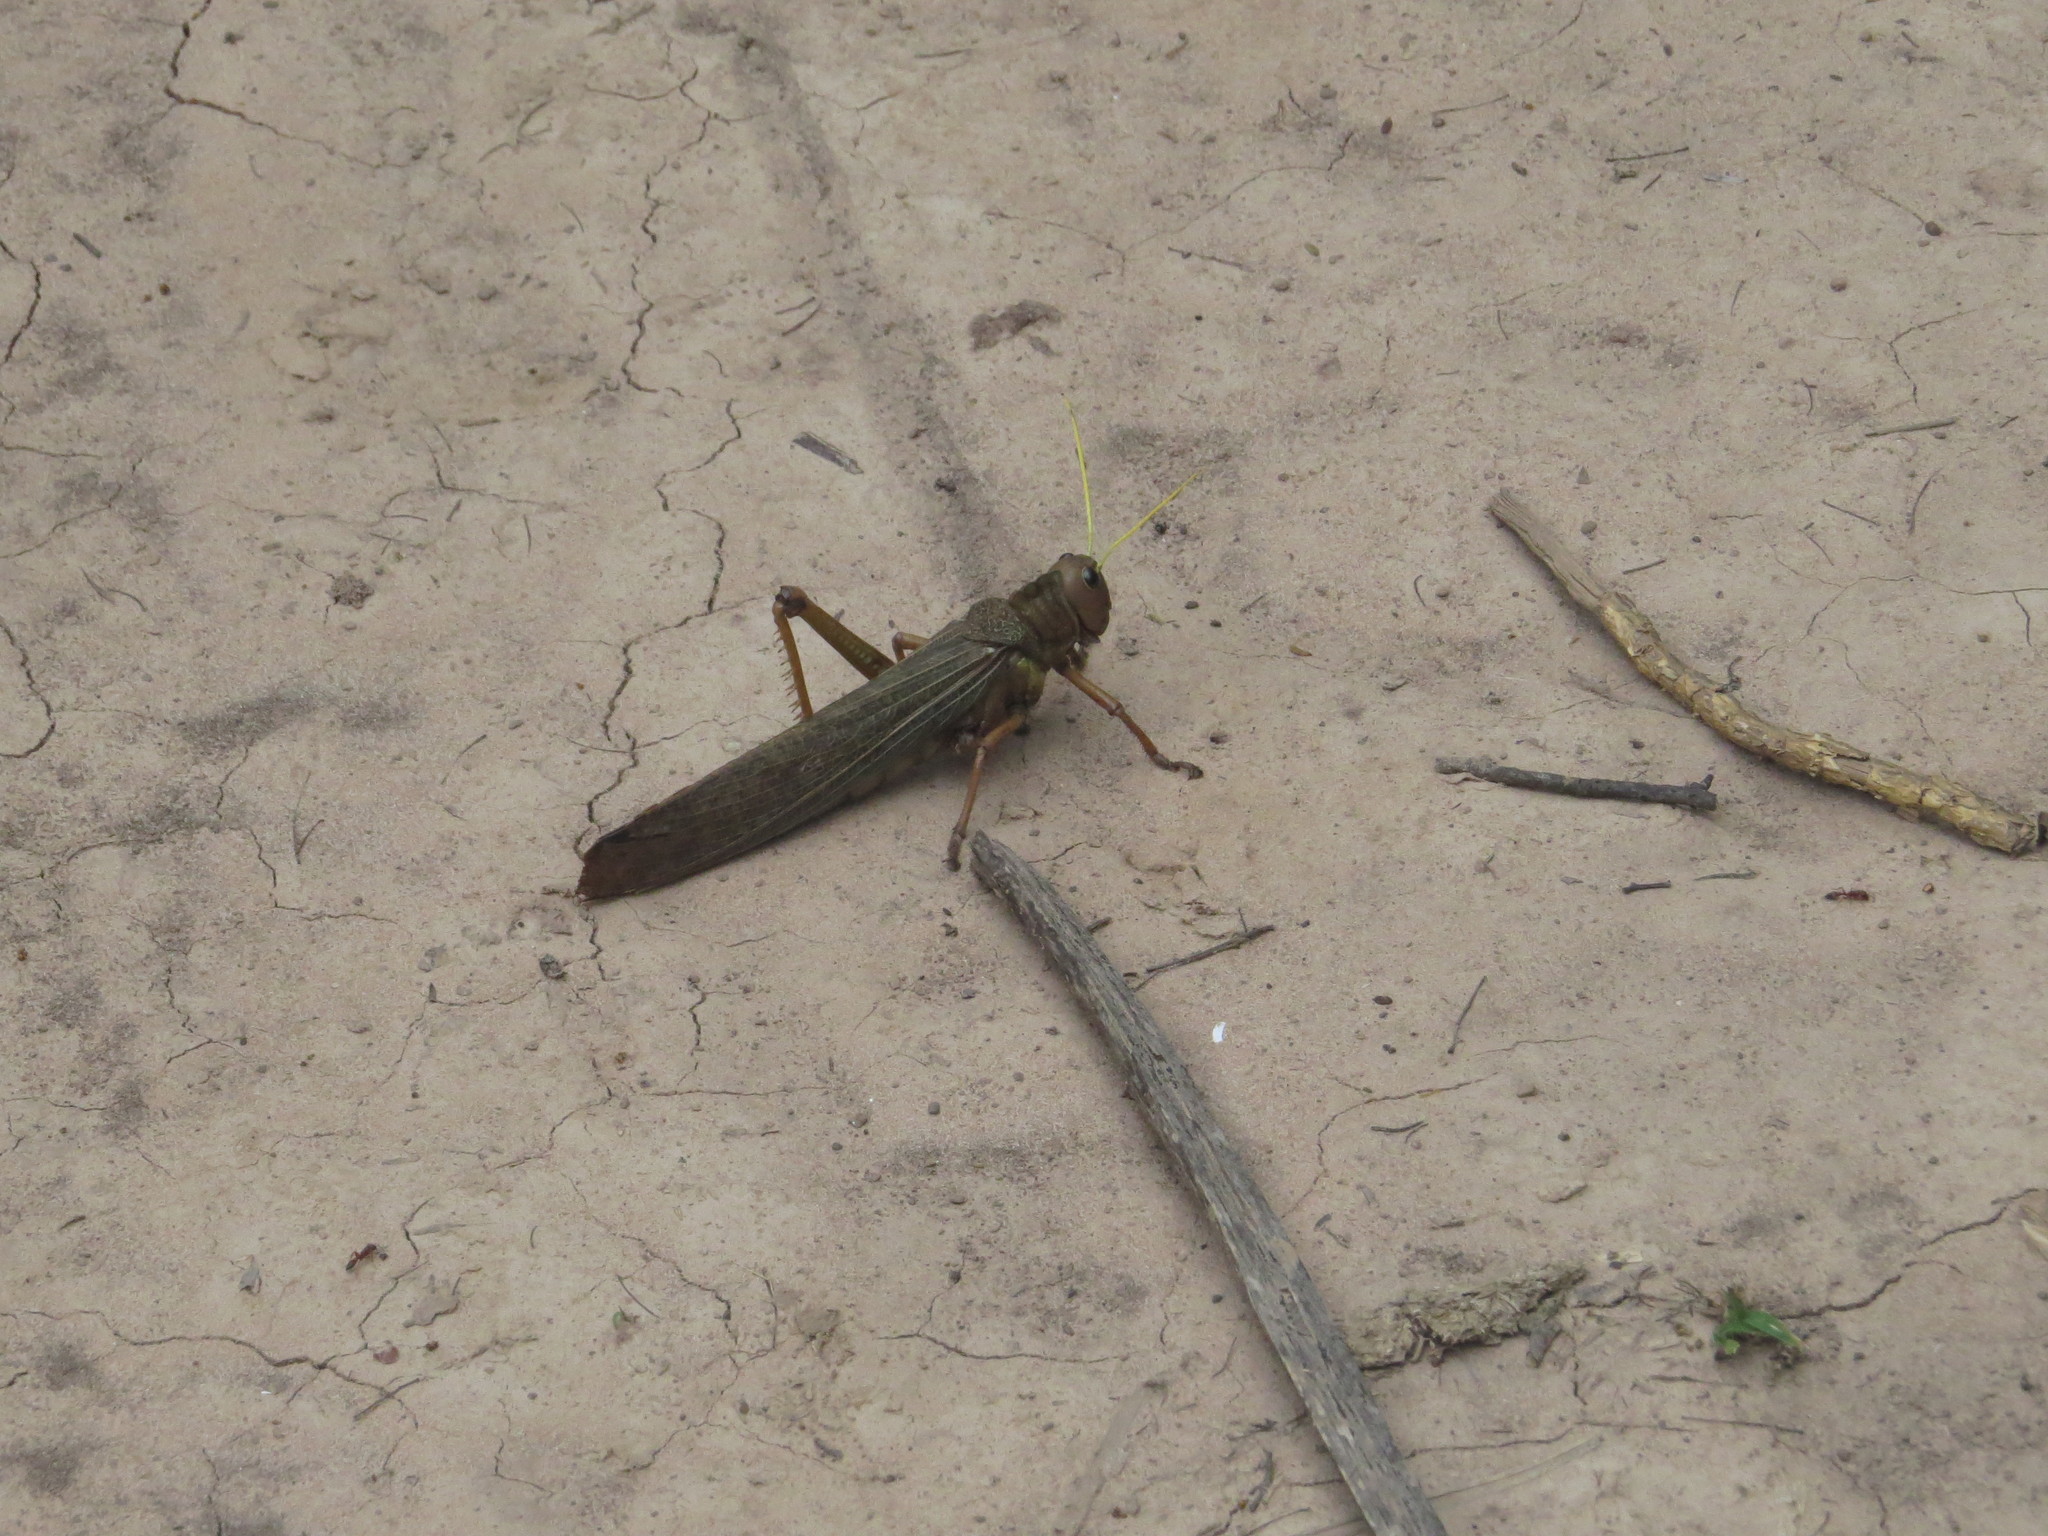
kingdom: Animalia
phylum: Arthropoda
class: Insecta
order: Orthoptera
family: Romaleidae
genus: Tropidacris
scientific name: Tropidacris collaris
